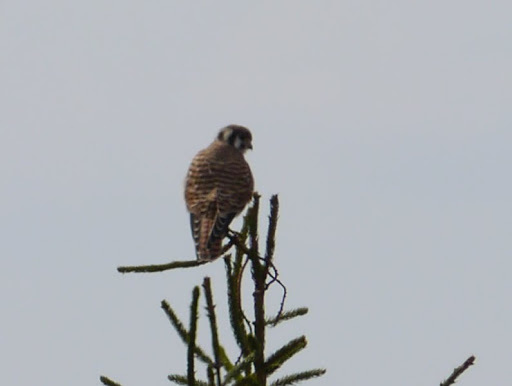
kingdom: Animalia
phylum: Chordata
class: Aves
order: Falconiformes
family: Falconidae
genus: Falco
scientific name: Falco sparverius
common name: American kestrel
